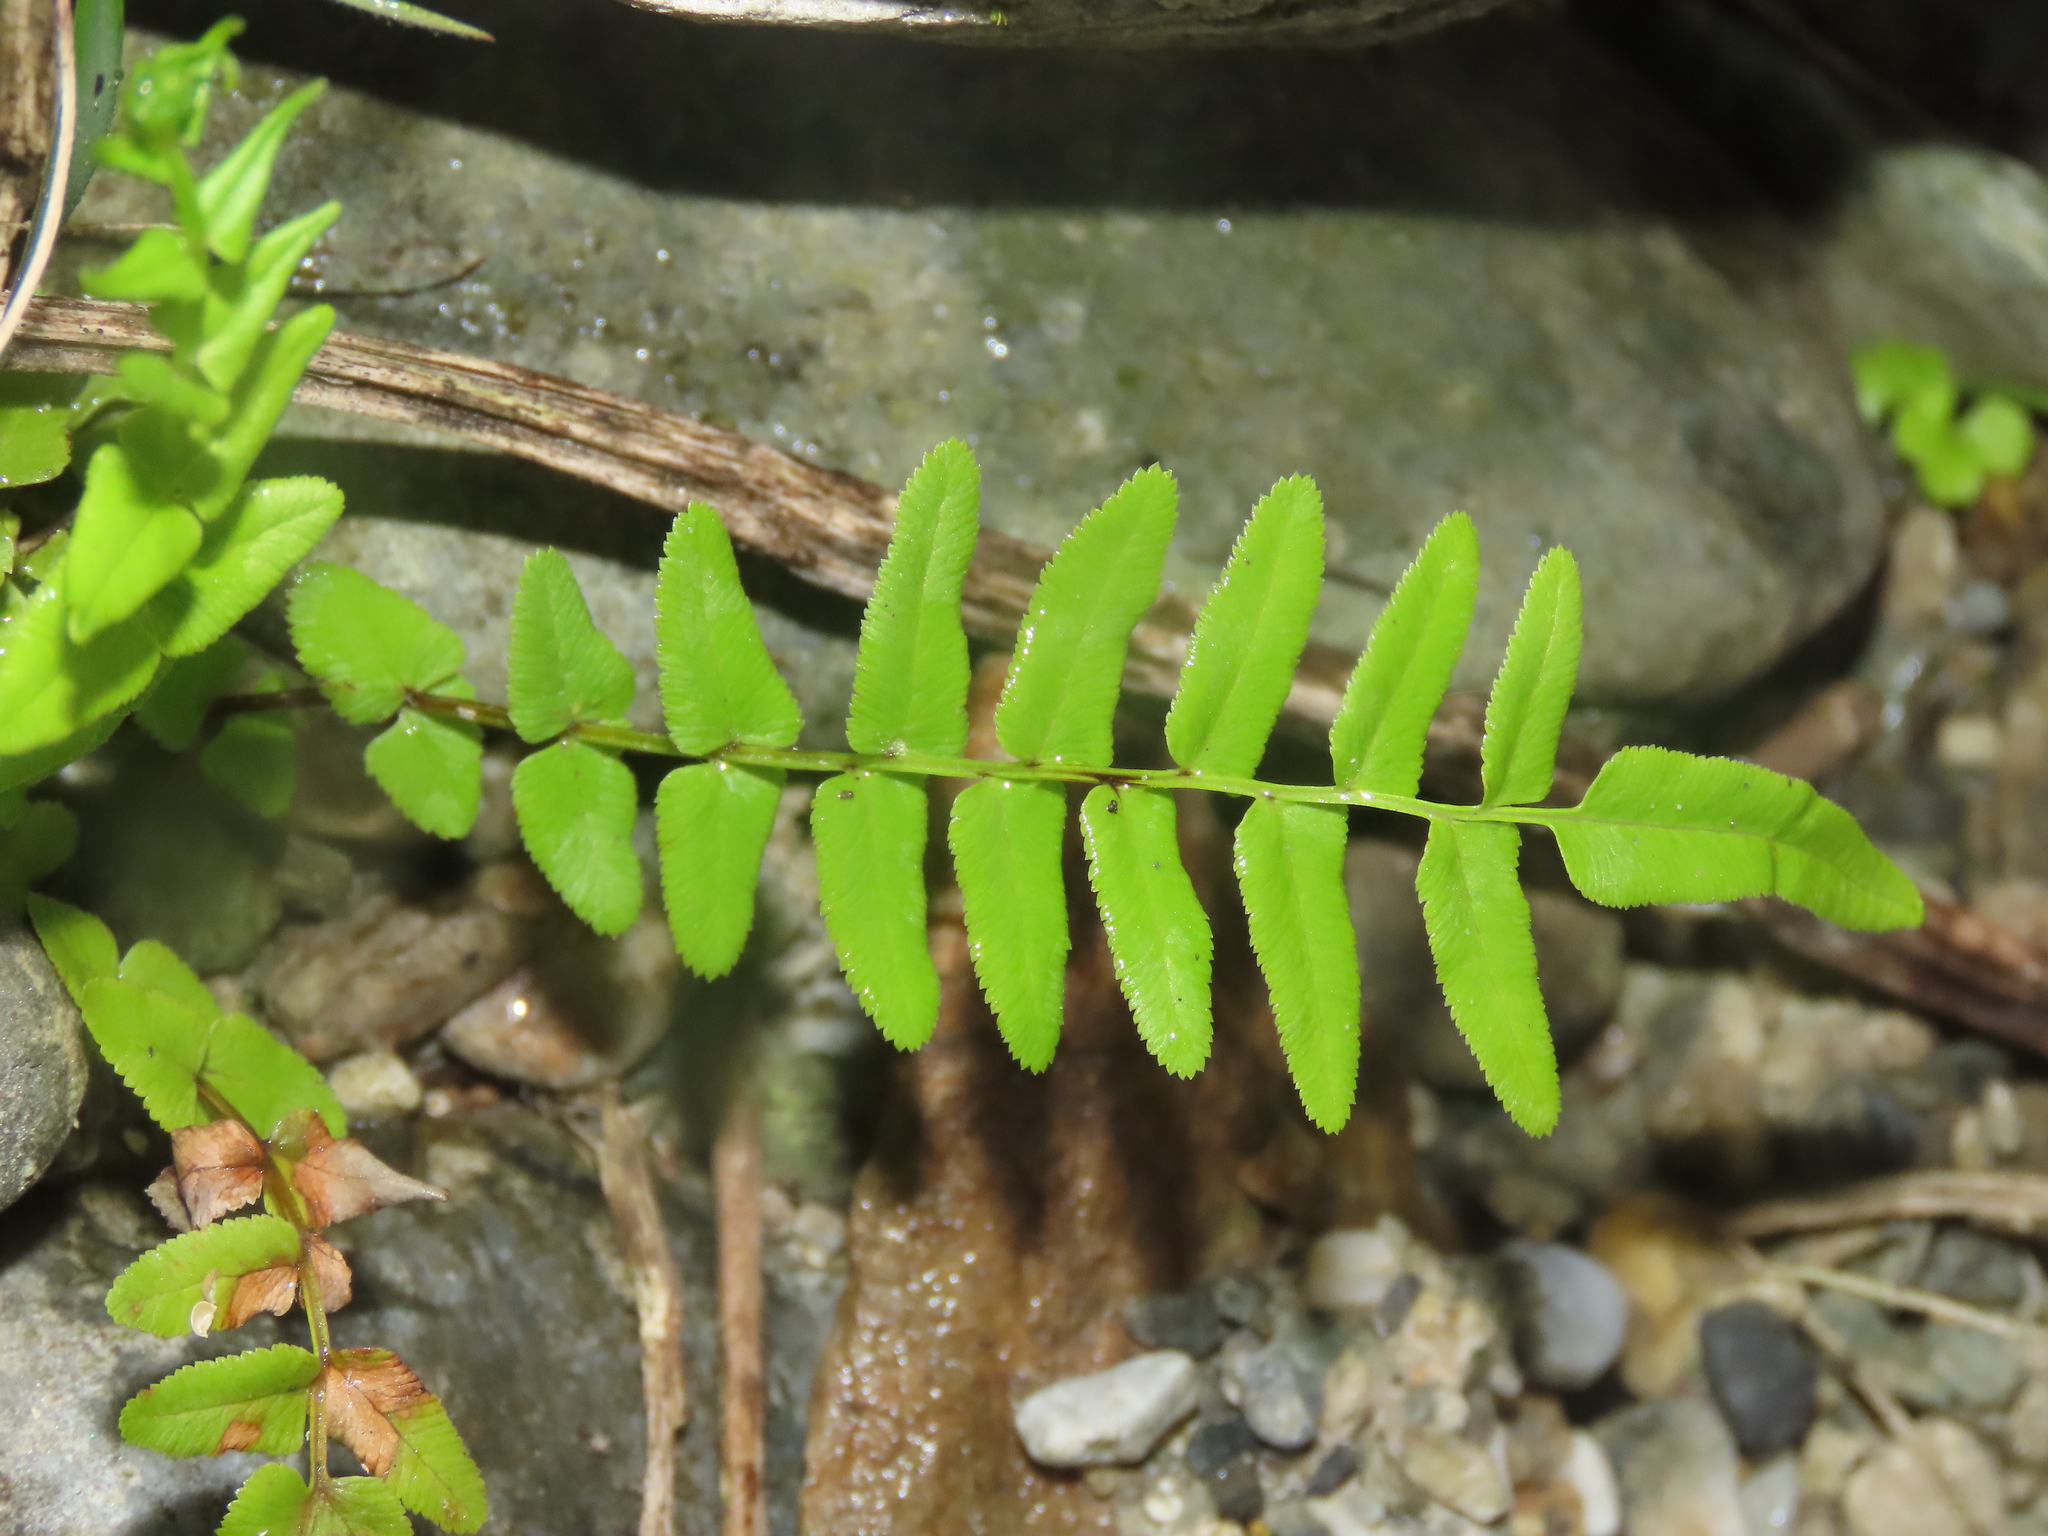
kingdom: Plantae
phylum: Tracheophyta
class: Polypodiopsida
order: Polypodiales
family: Pteridaceae
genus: Pteris
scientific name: Pteris vittata
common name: Ladder brake
